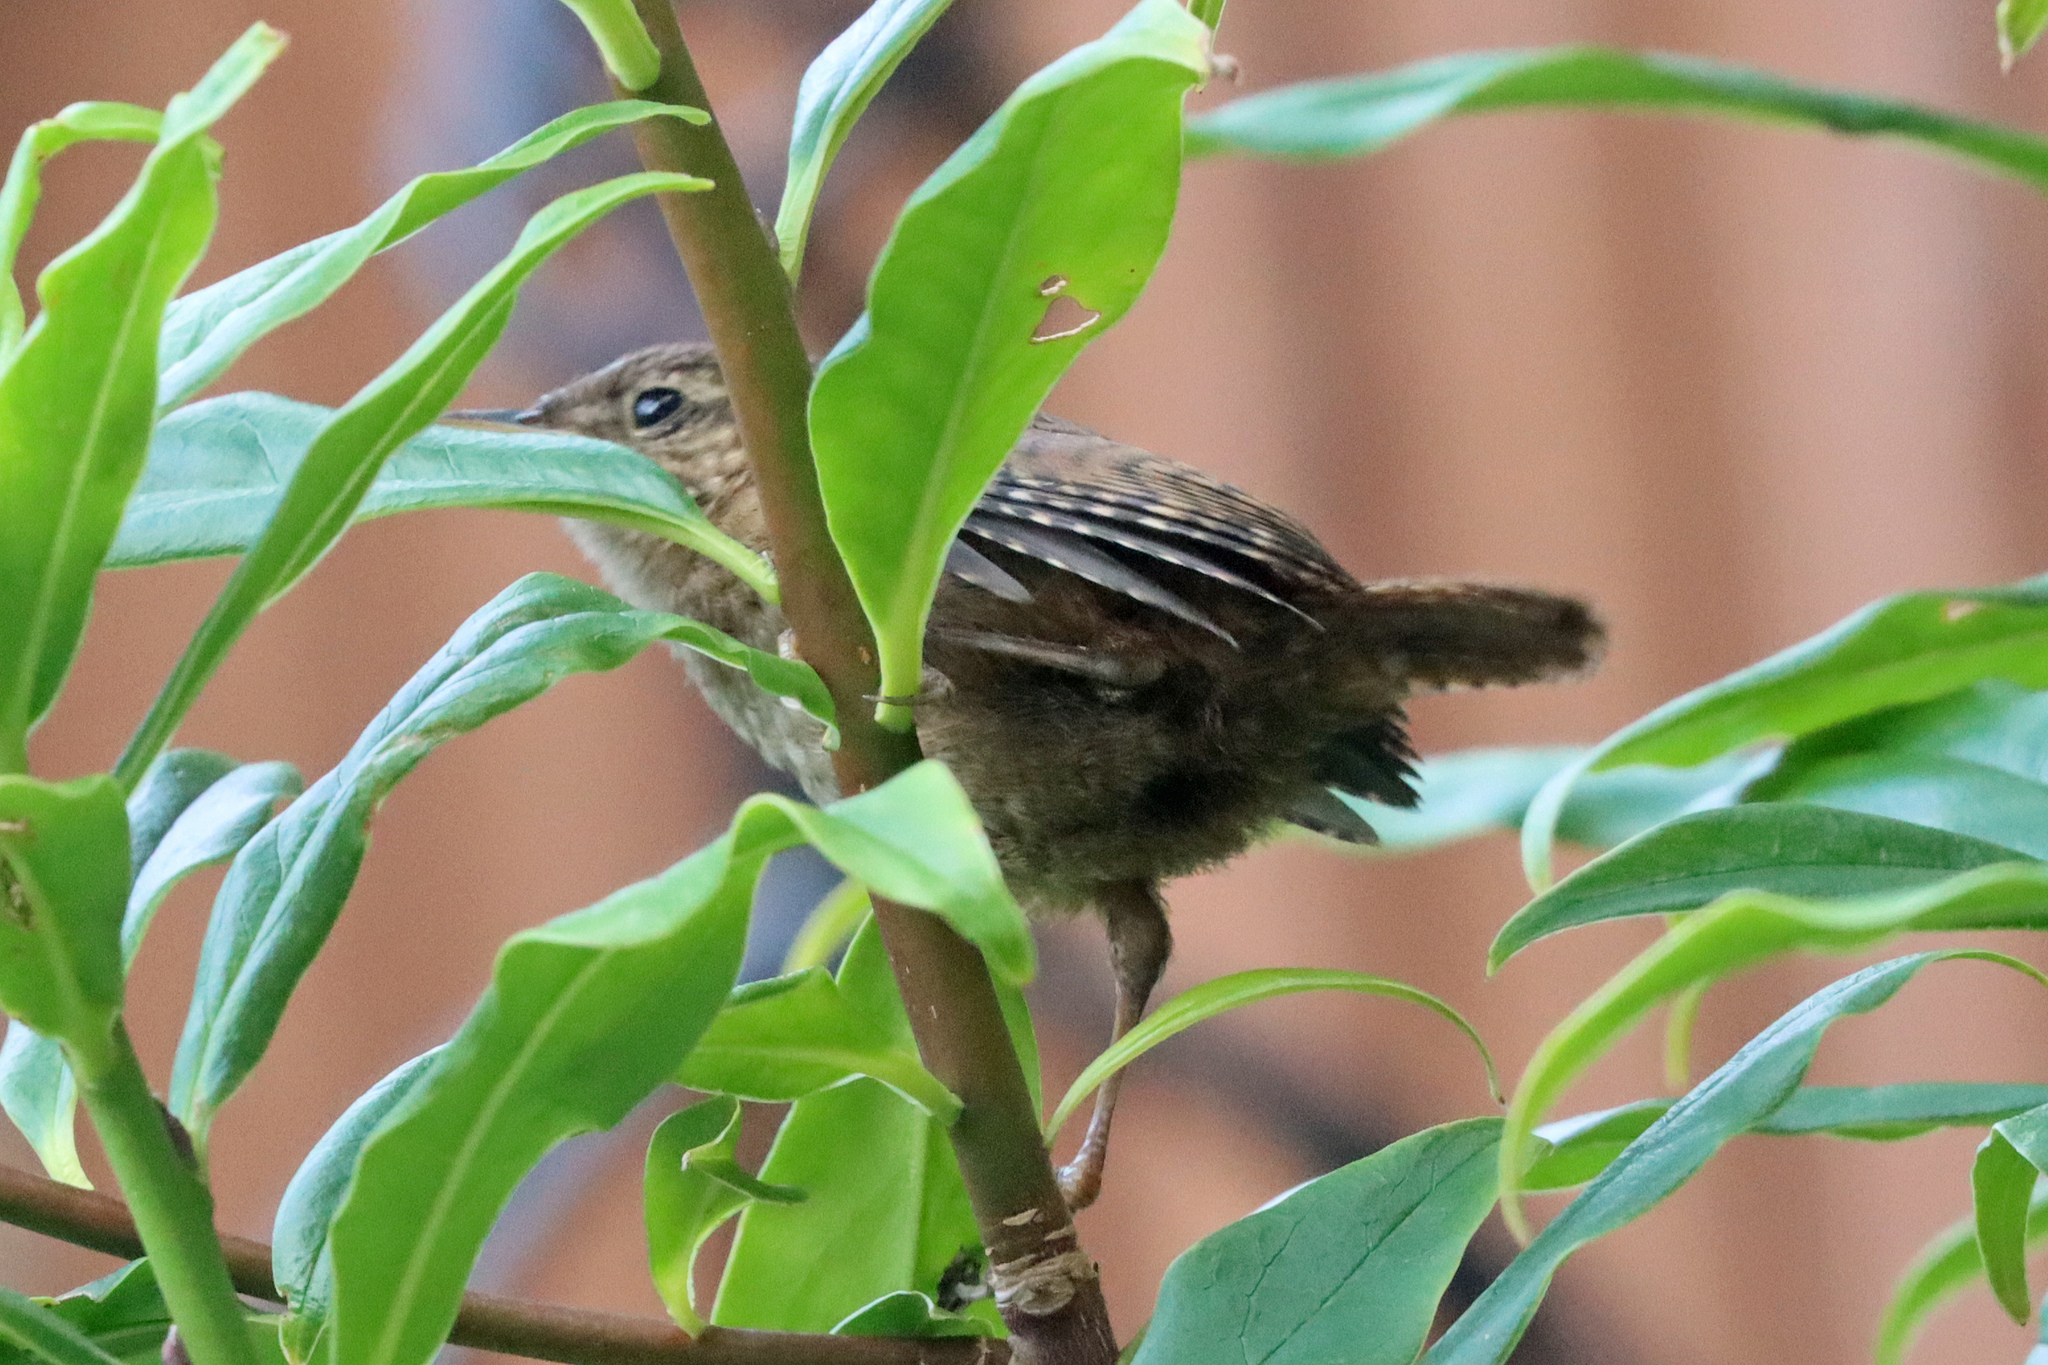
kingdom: Animalia
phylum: Chordata
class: Aves
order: Passeriformes
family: Troglodytidae
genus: Troglodytes
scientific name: Troglodytes troglodytes
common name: Eurasian wren
